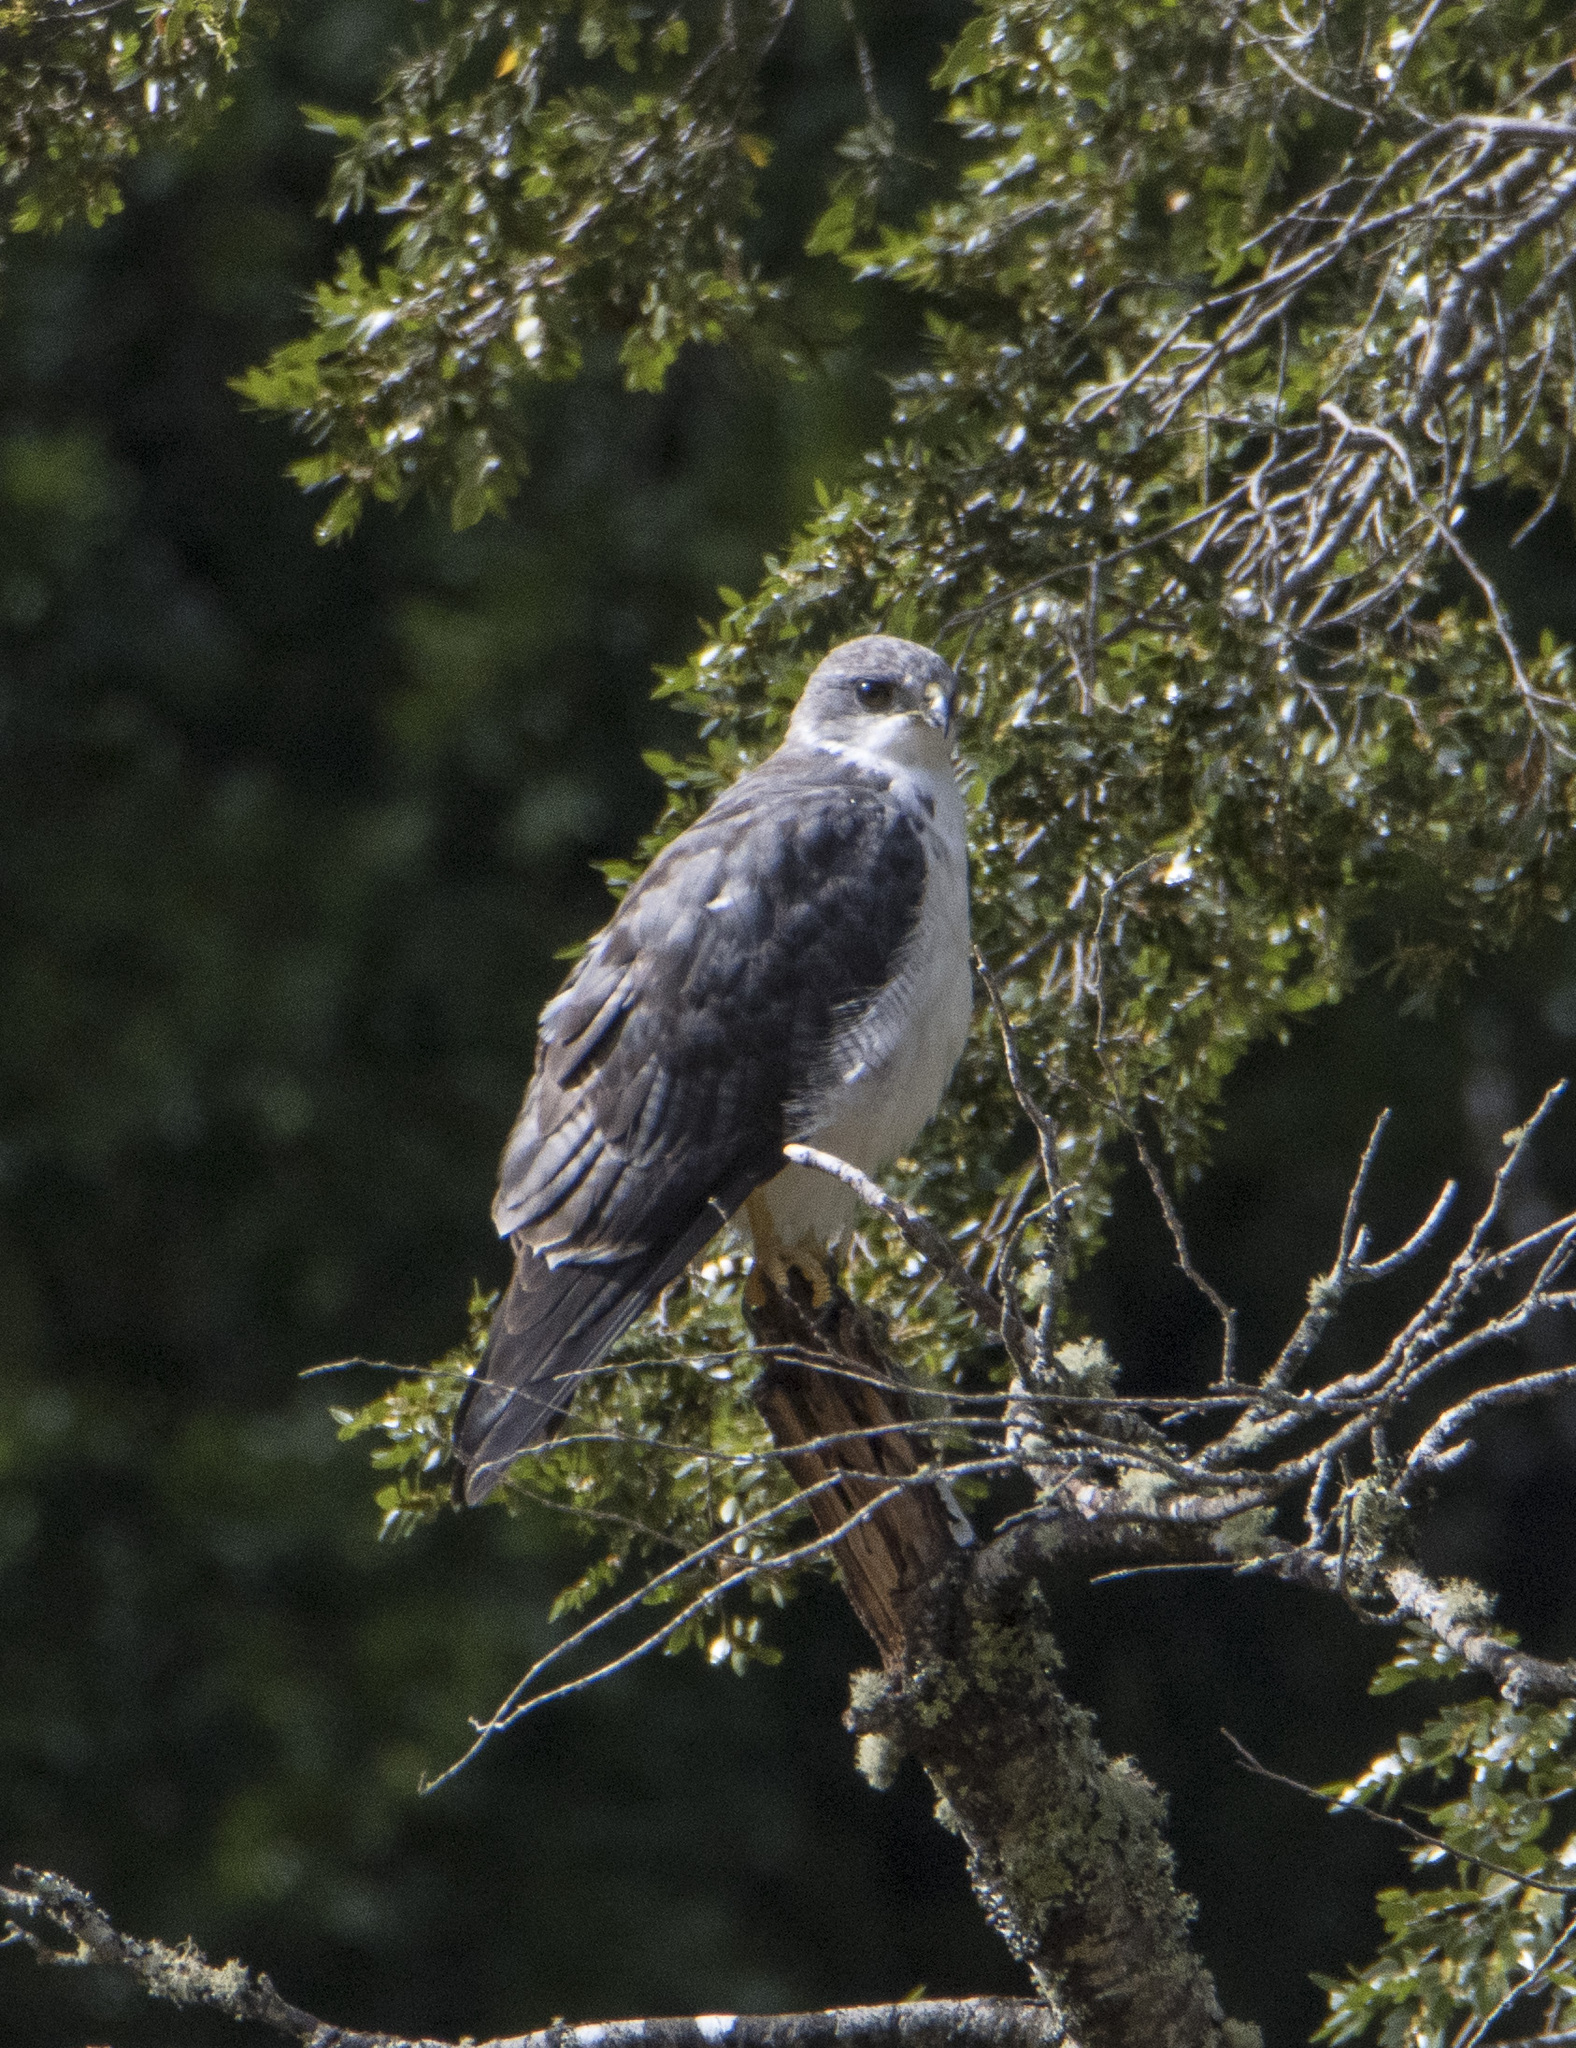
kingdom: Animalia
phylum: Chordata
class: Aves
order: Accipitriformes
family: Accipitridae
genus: Buteo
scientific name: Buteo polyosoma
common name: Variable hawk
